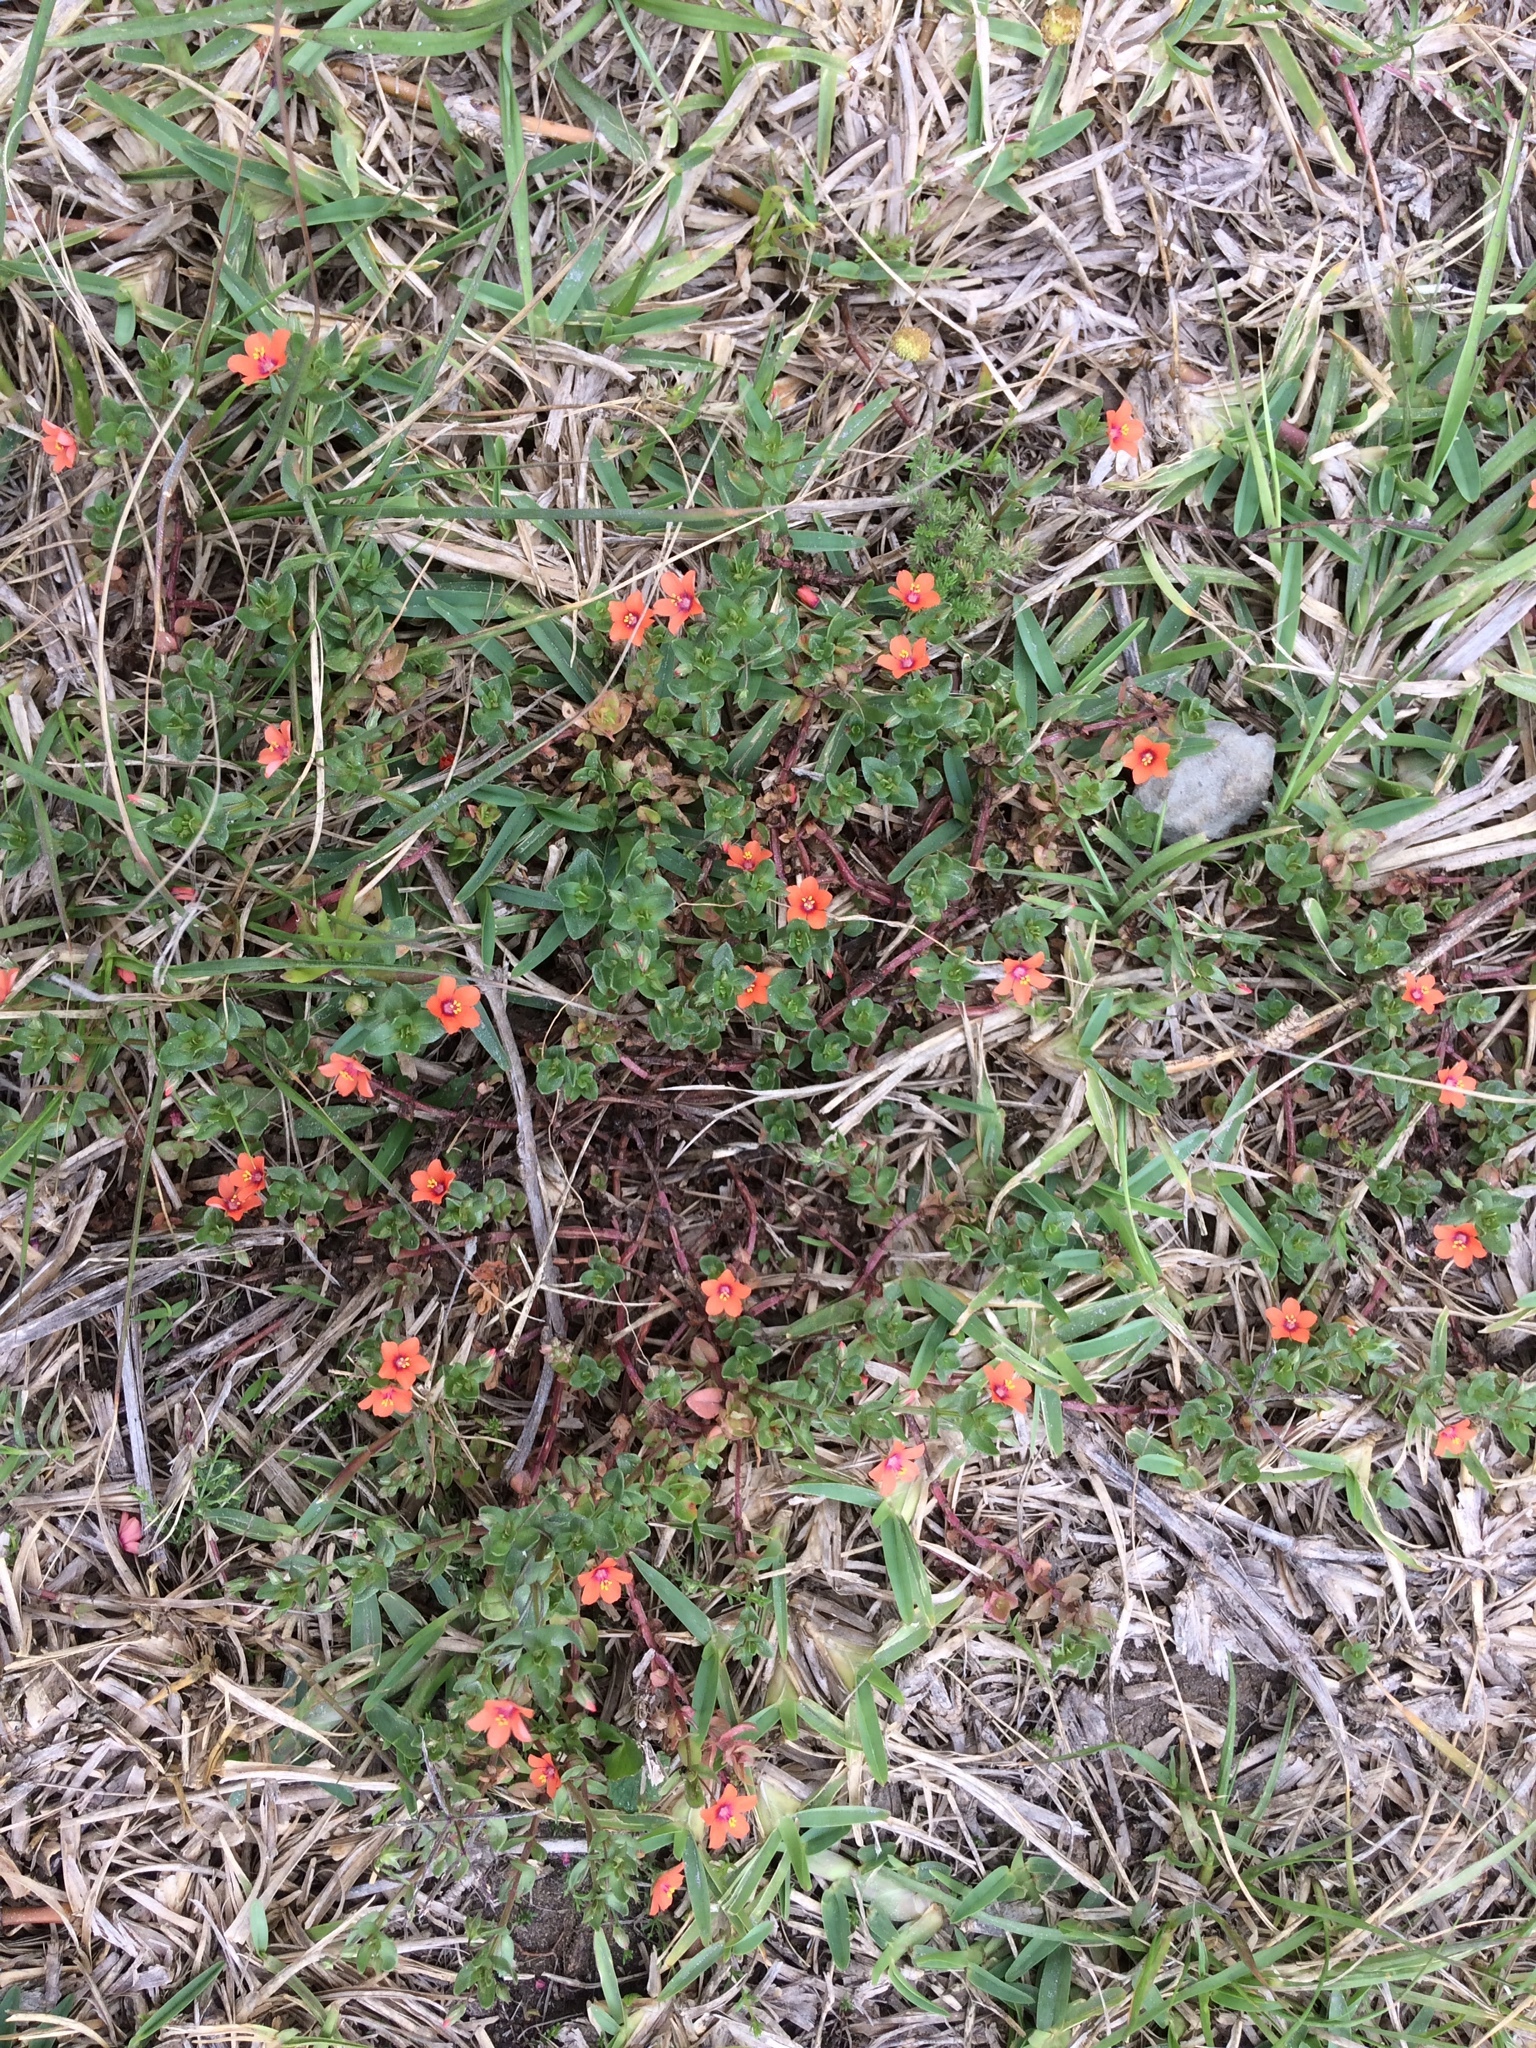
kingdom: Plantae
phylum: Tracheophyta
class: Magnoliopsida
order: Ericales
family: Primulaceae
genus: Lysimachia
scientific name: Lysimachia arvensis
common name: Scarlet pimpernel
